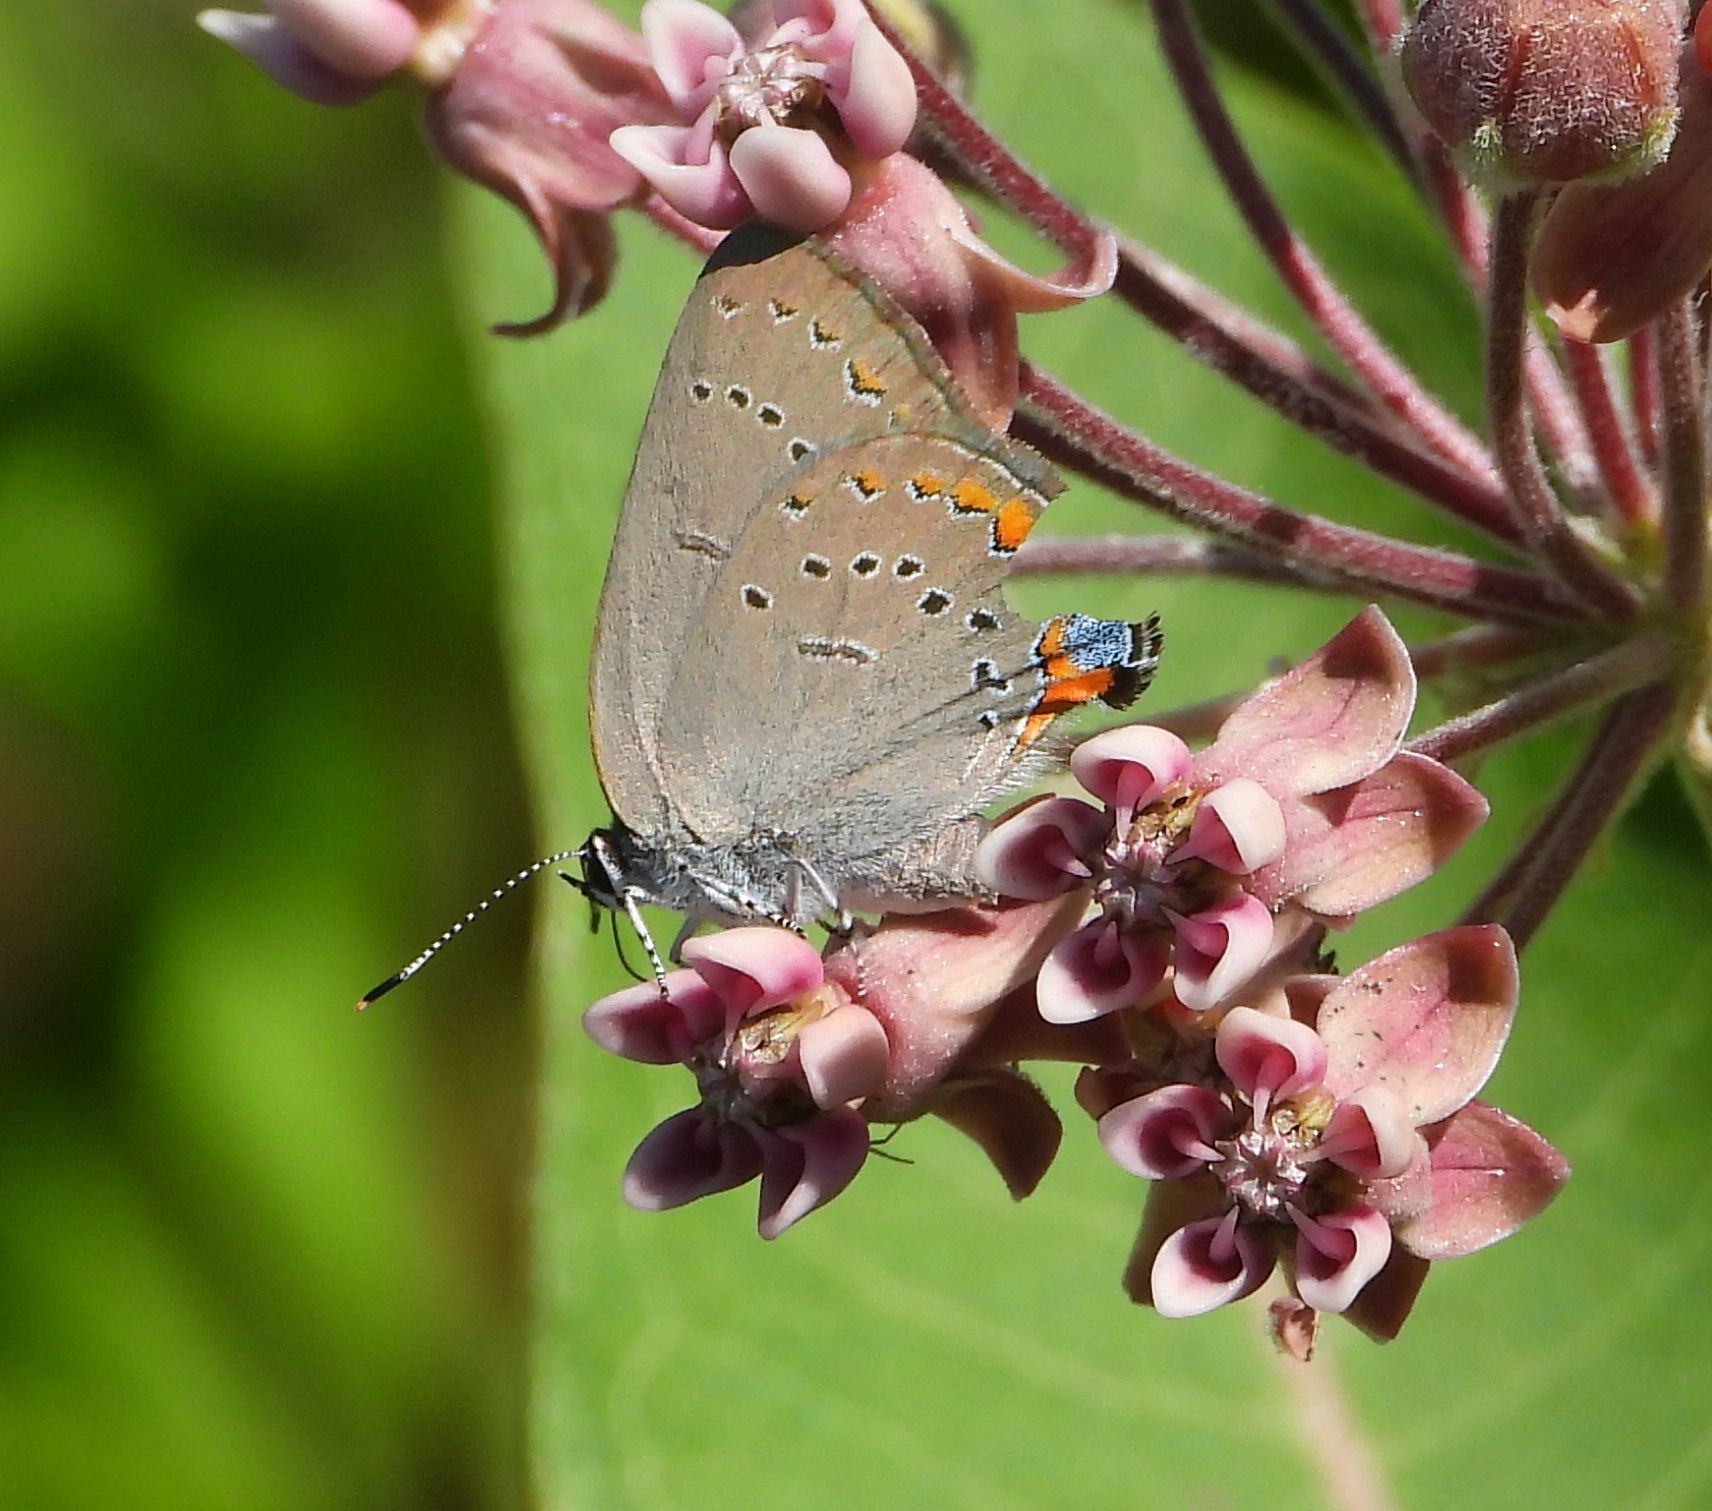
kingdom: Animalia
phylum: Arthropoda
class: Insecta
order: Lepidoptera
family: Lycaenidae
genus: Strymon
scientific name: Strymon acadica
